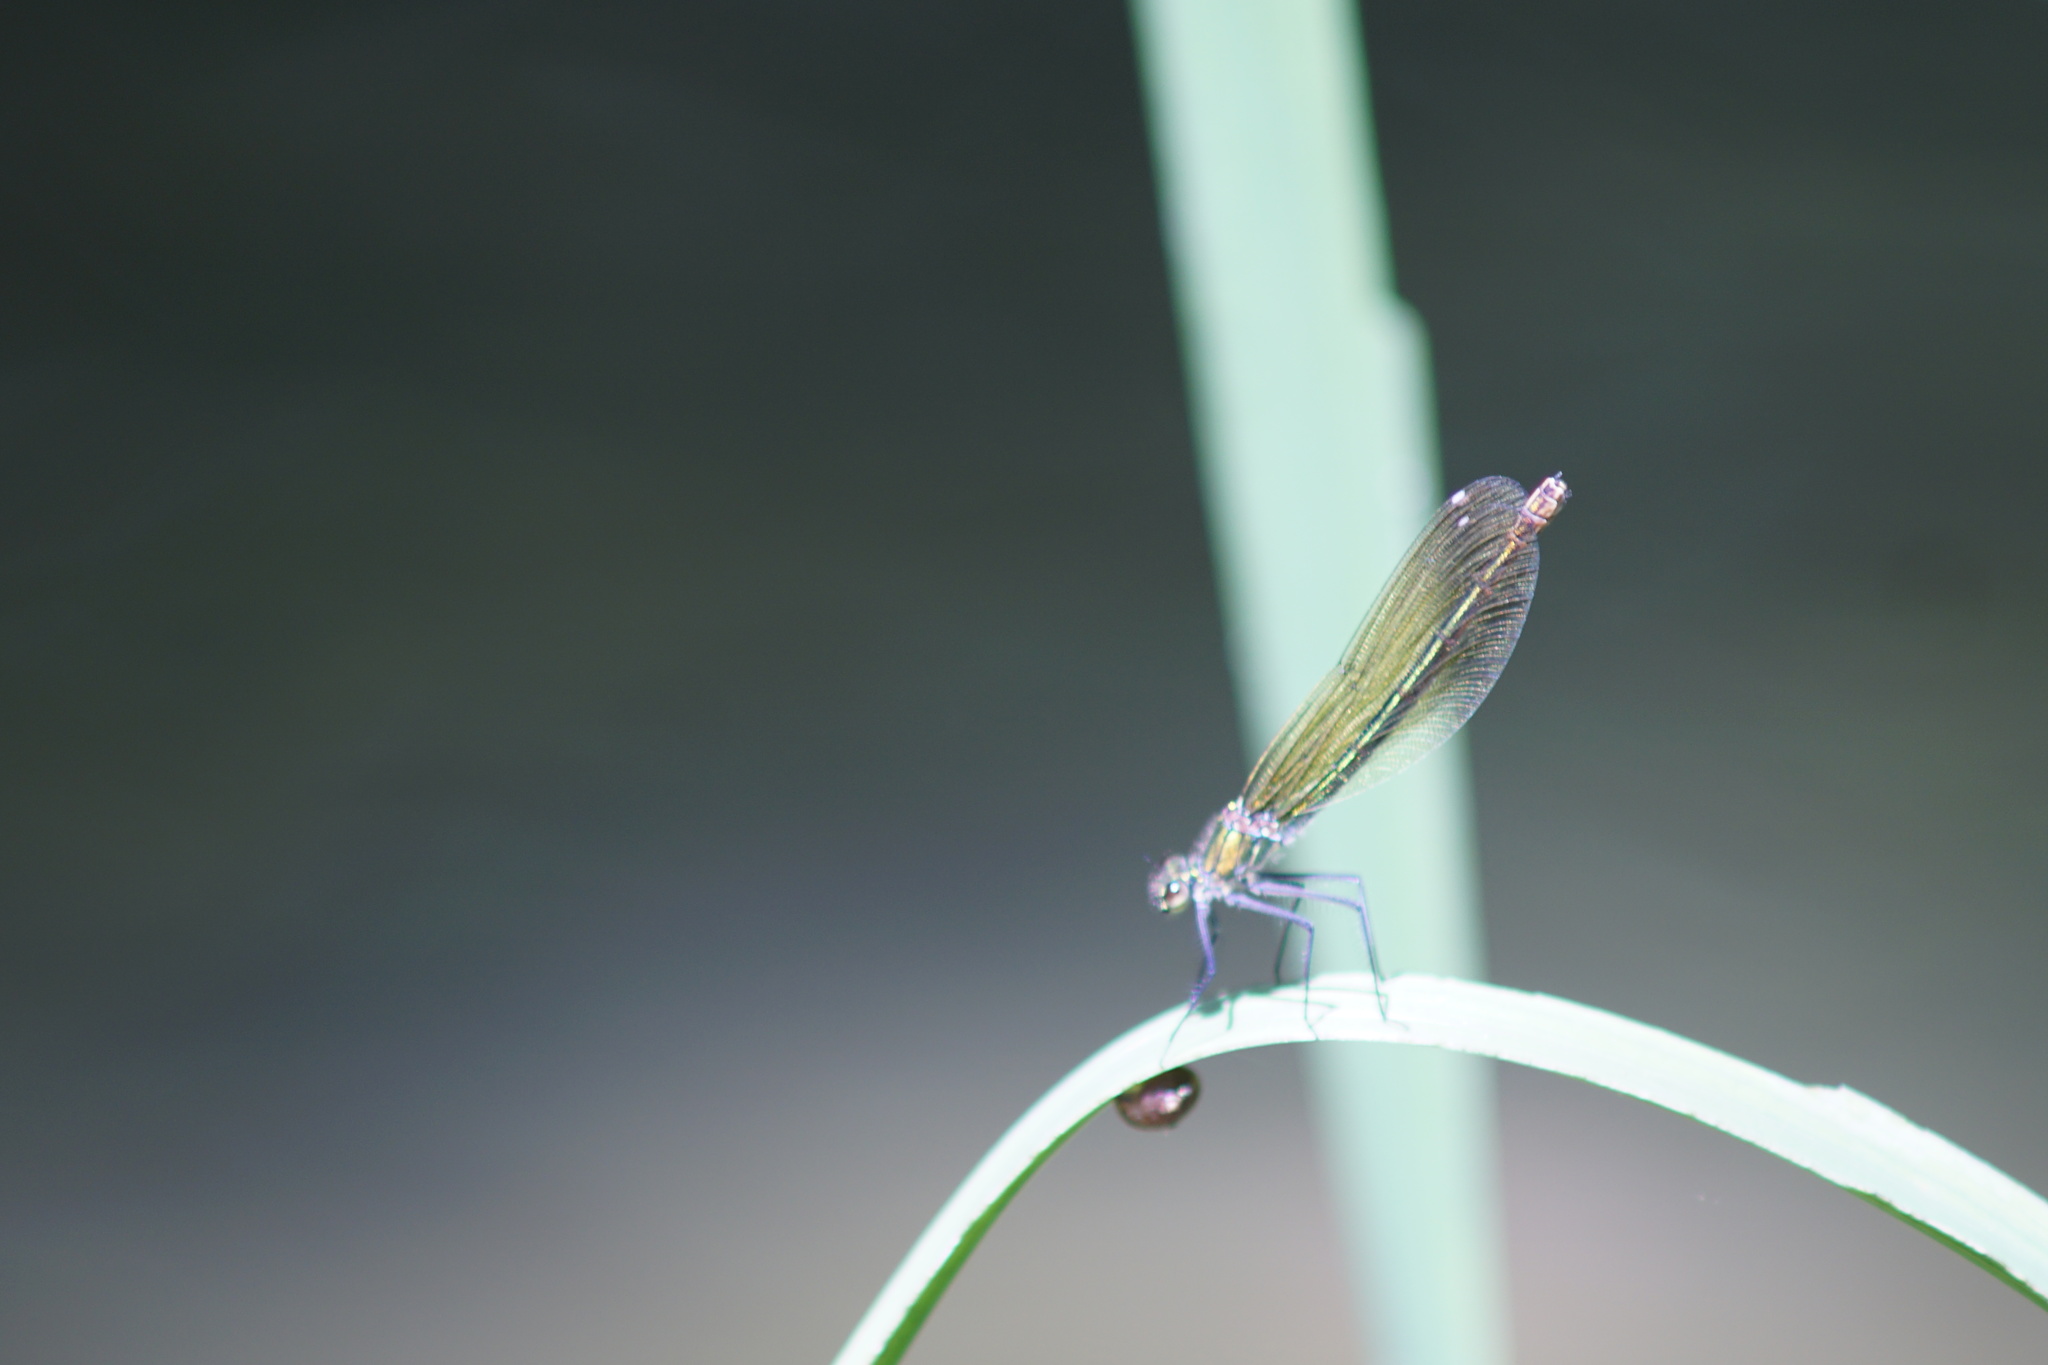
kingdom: Animalia
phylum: Arthropoda
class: Insecta
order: Odonata
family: Calopterygidae
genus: Calopteryx
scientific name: Calopteryx splendens
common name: Banded demoiselle
